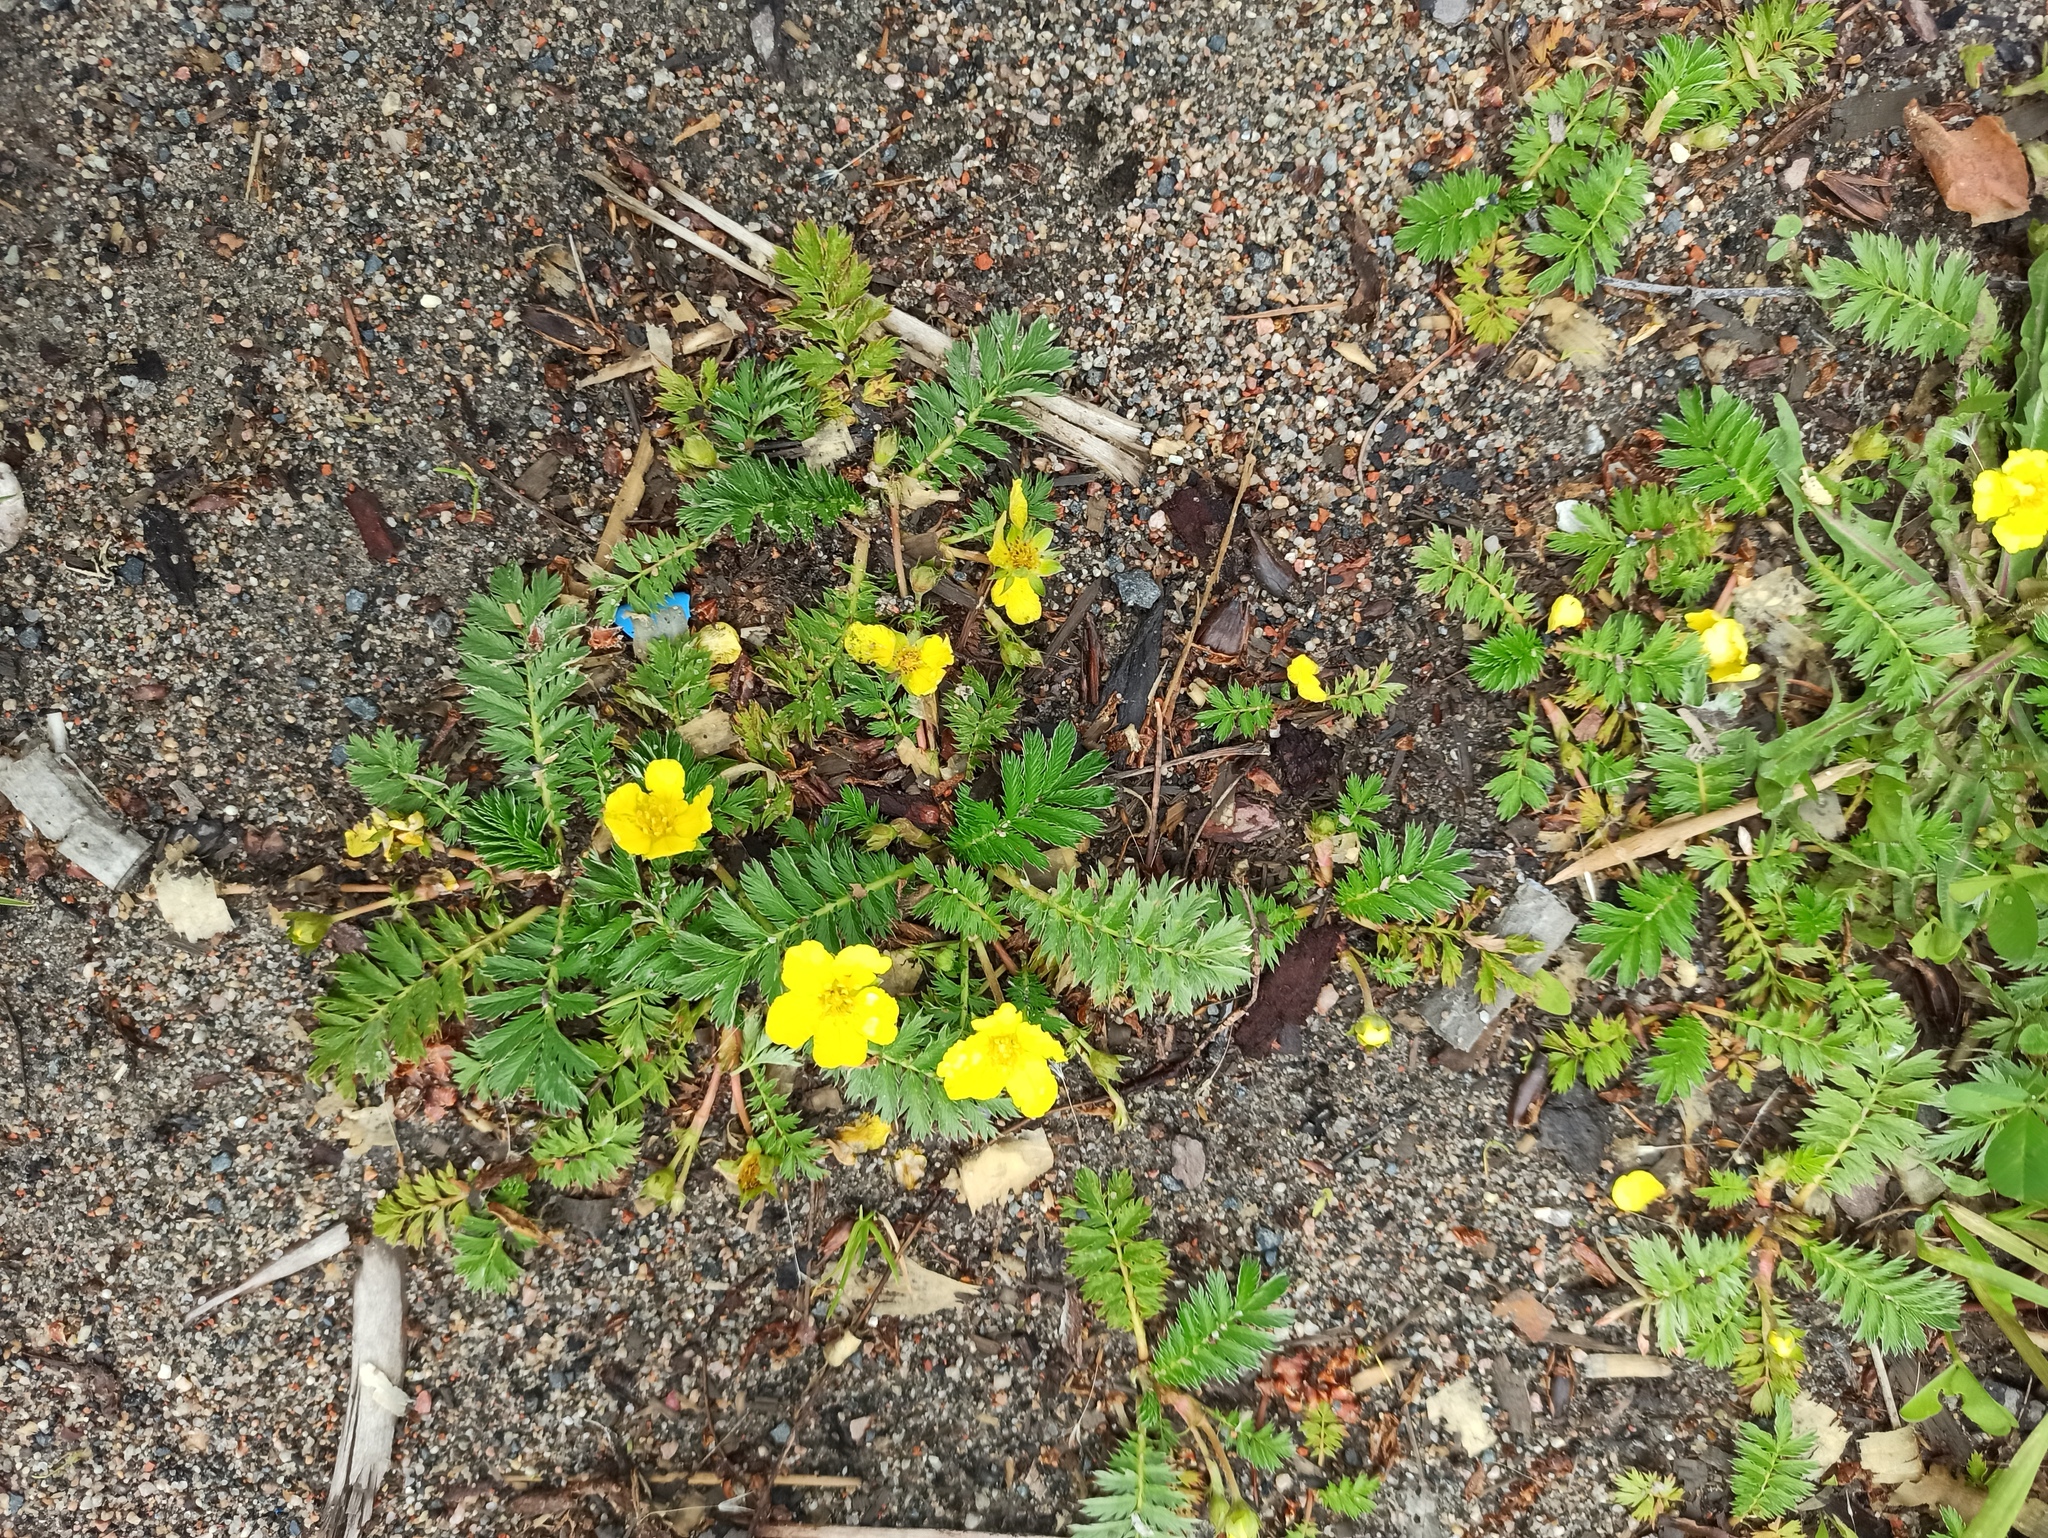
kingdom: Plantae
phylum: Tracheophyta
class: Magnoliopsida
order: Rosales
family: Rosaceae
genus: Argentina
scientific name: Argentina anserina
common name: Common silverweed
